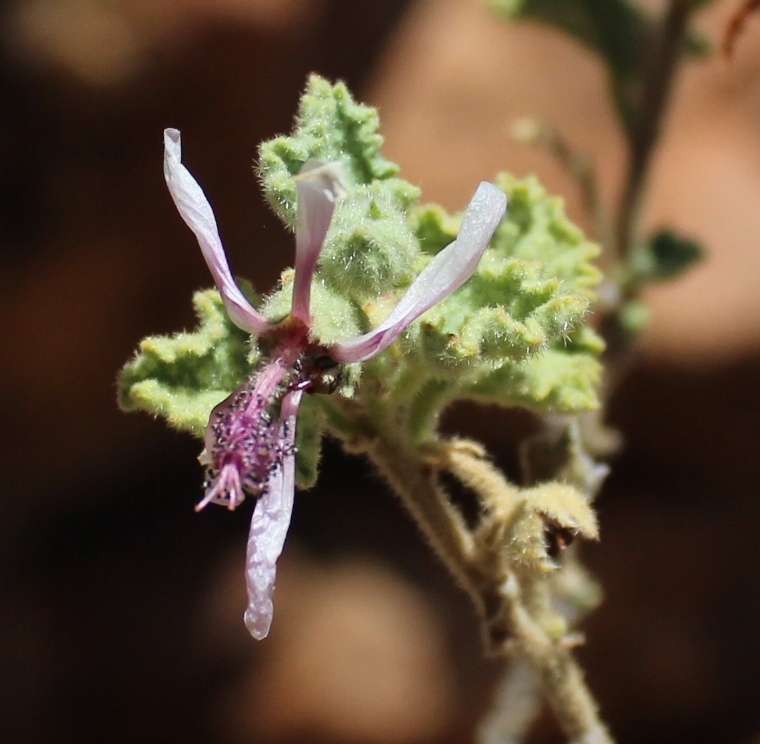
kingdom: Plantae
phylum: Tracheophyta
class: Magnoliopsida
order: Malvales
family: Malvaceae
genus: Anisodontea
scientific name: Anisodontea reflexa
